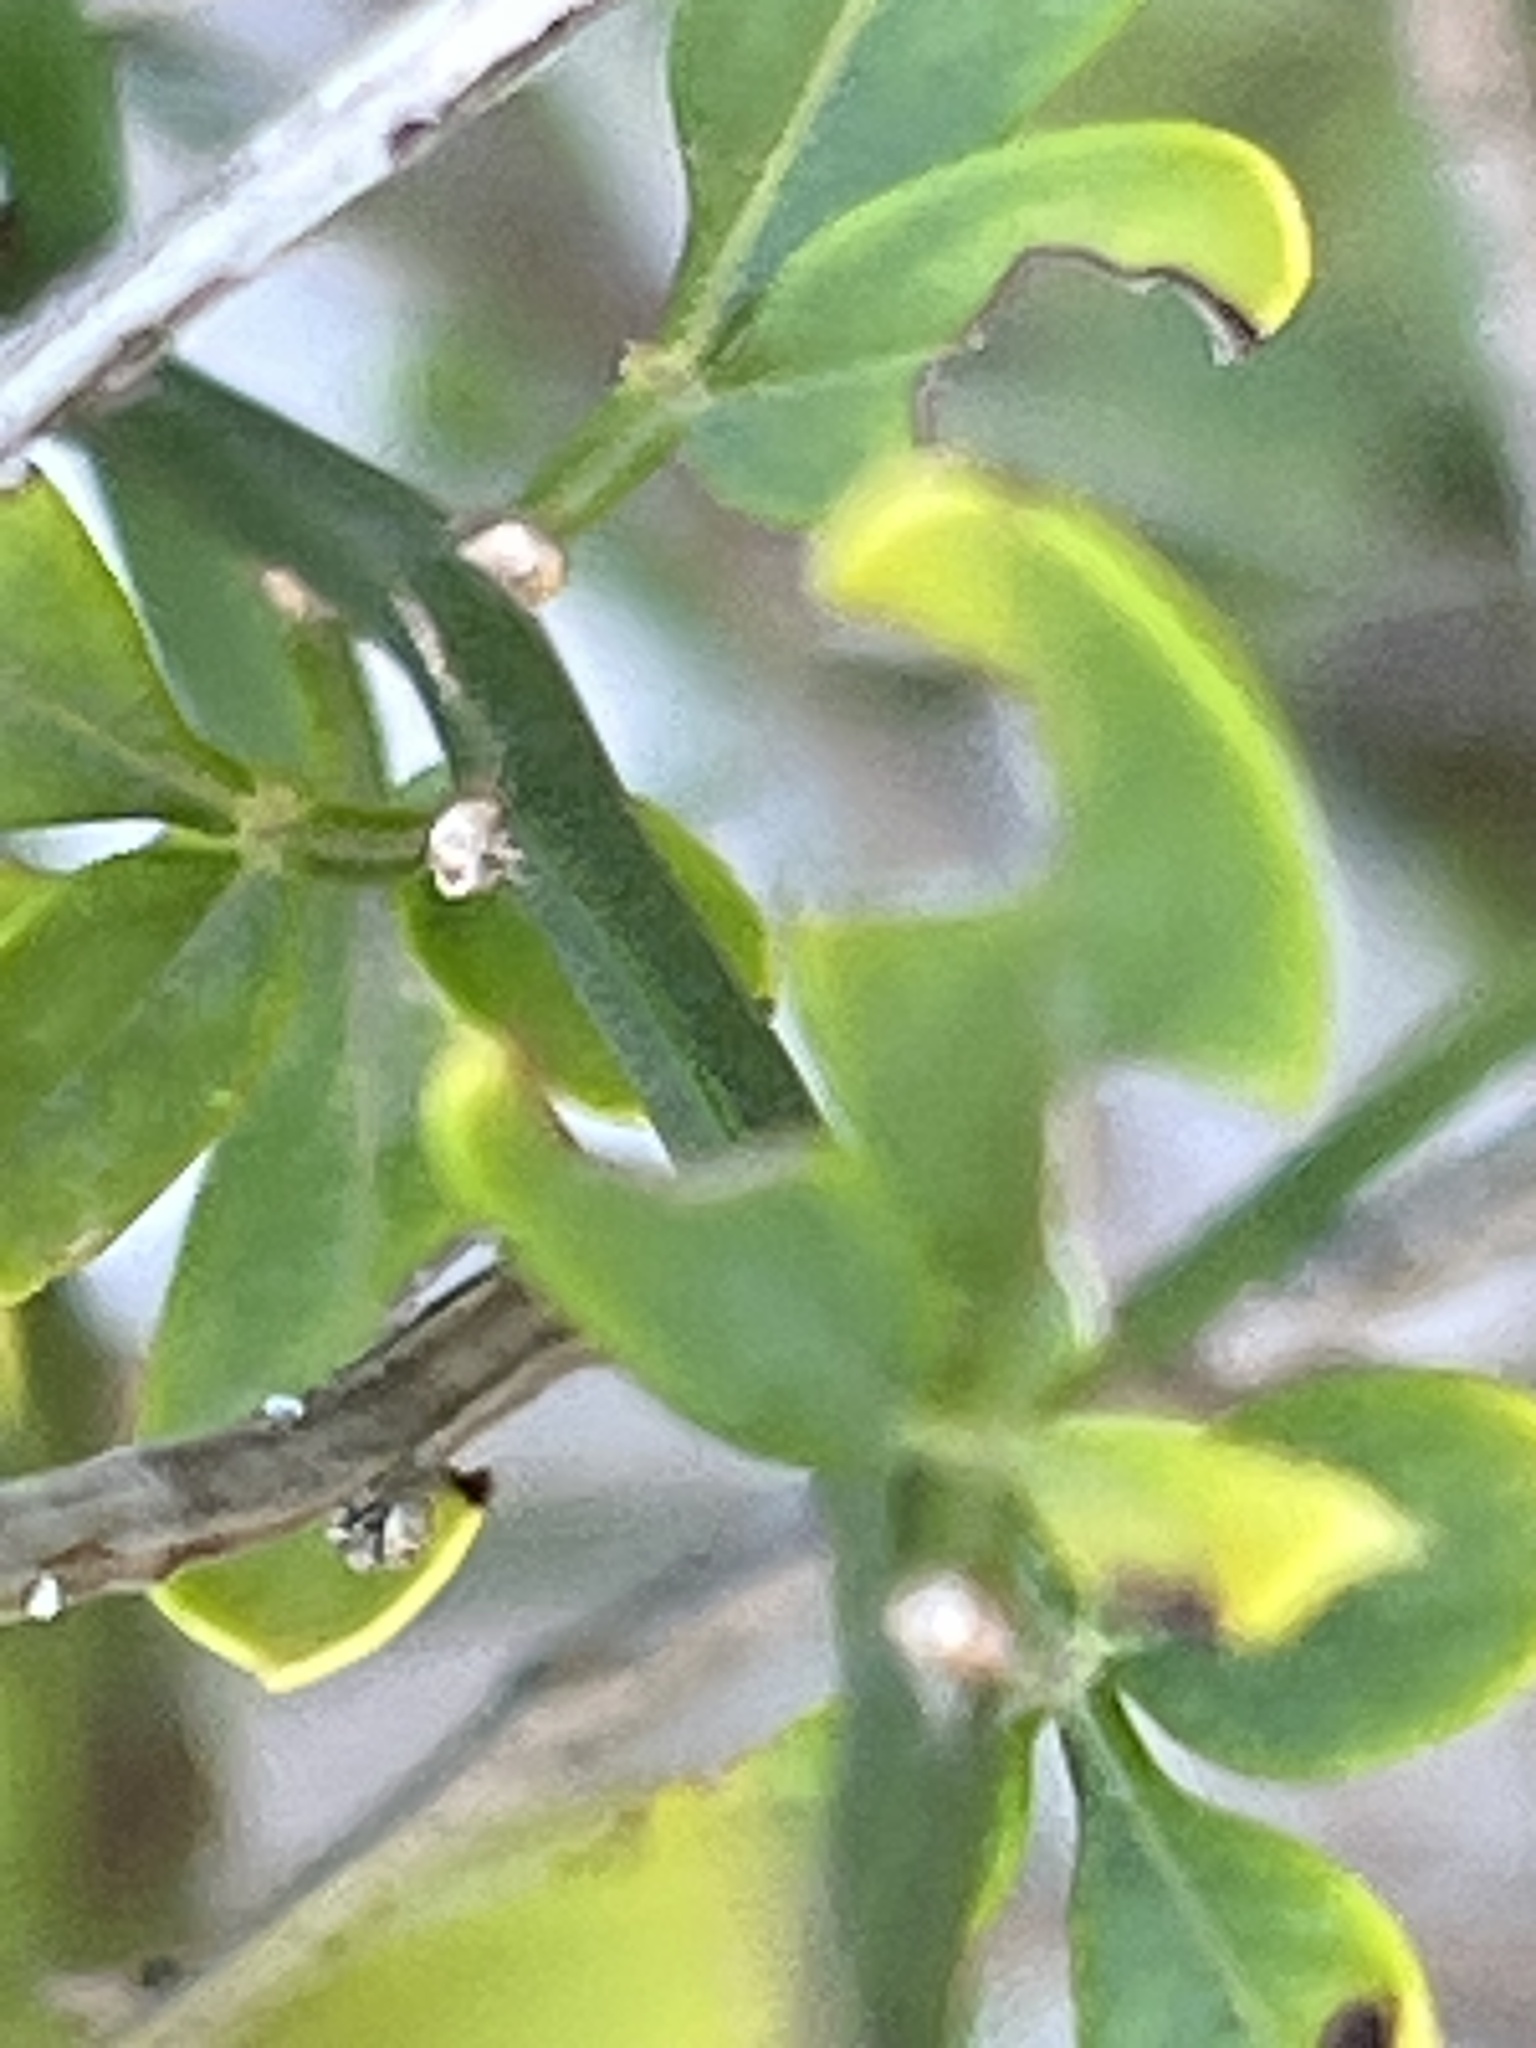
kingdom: Plantae
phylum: Tracheophyta
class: Magnoliopsida
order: Lamiales
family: Oleaceae
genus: Chrysojasminum
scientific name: Chrysojasminum fruticans
